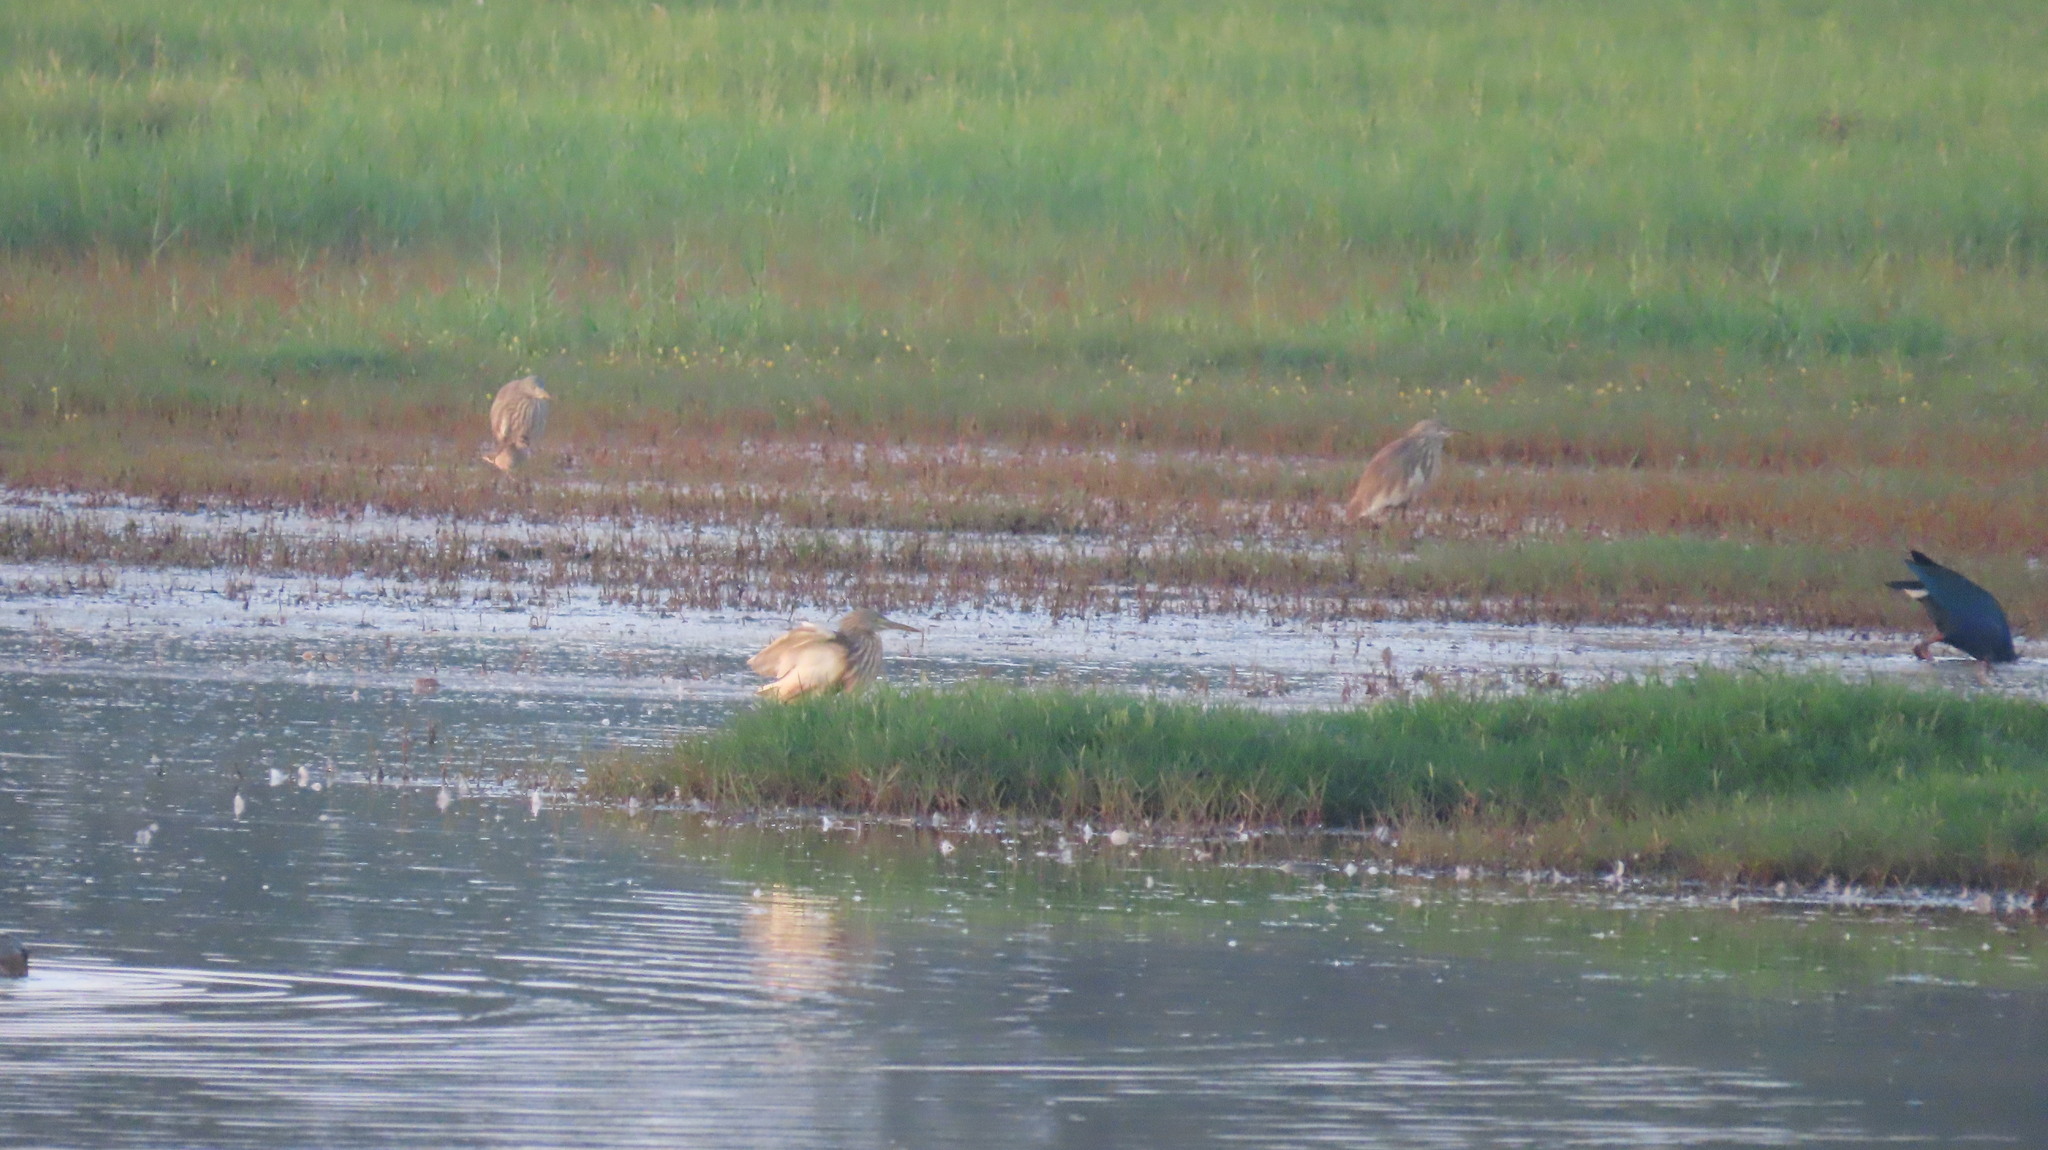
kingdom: Animalia
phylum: Chordata
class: Aves
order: Pelecaniformes
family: Ardeidae
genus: Ardeola
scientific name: Ardeola grayii
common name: Indian pond heron
